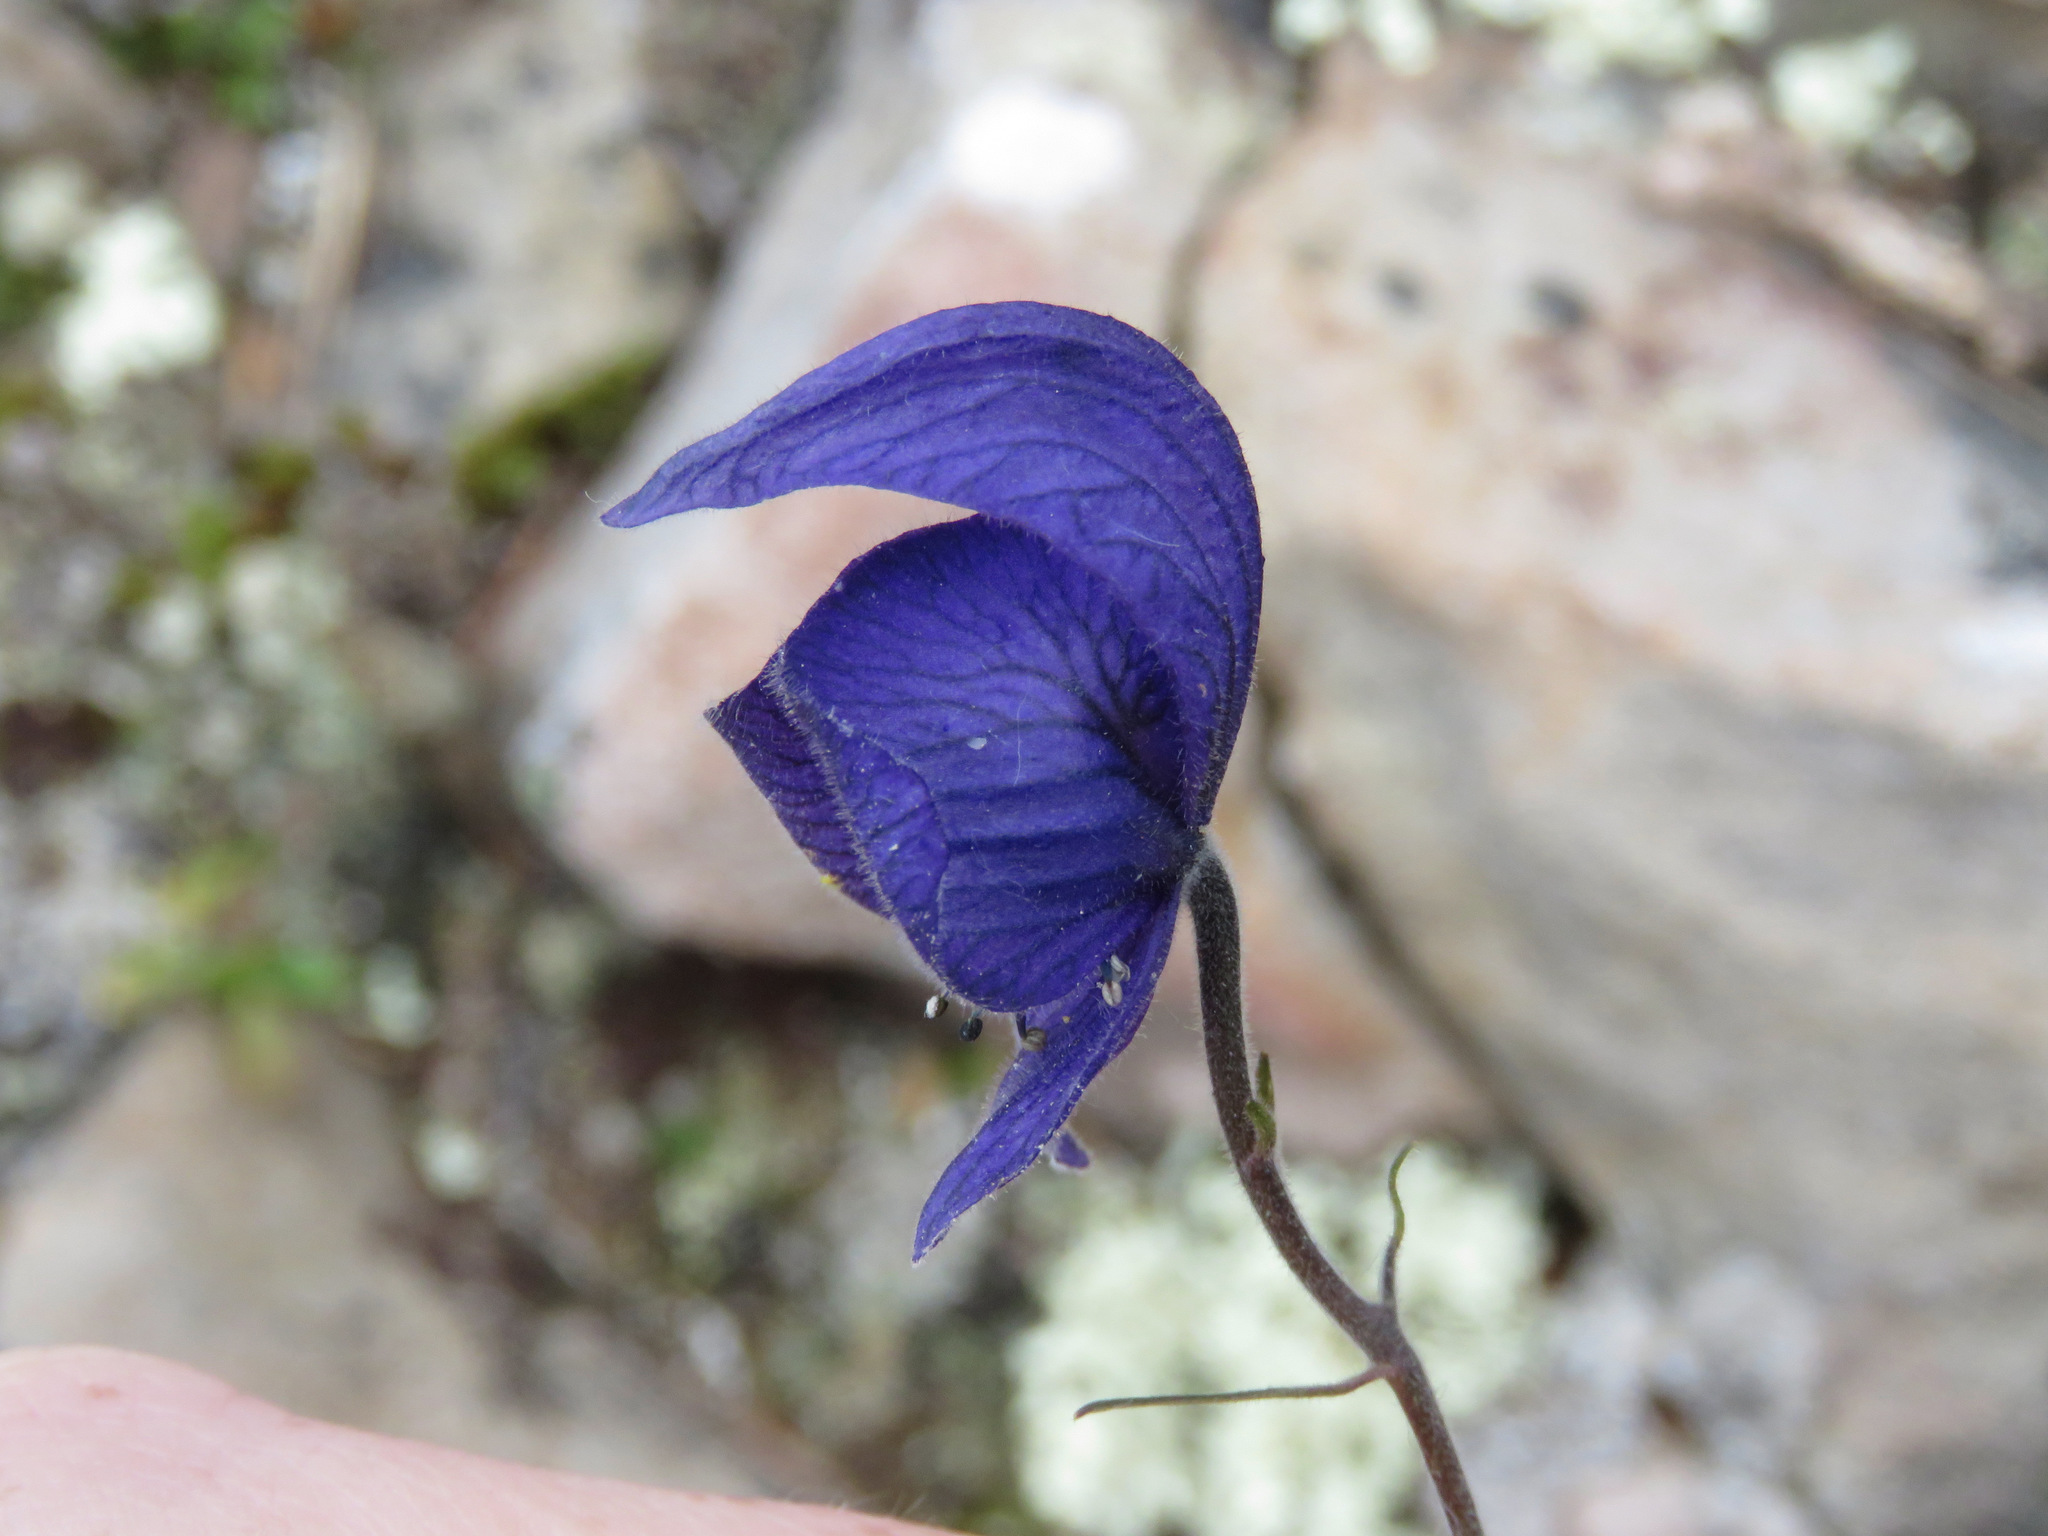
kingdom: Plantae
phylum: Tracheophyta
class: Magnoliopsida
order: Ranunculales
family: Ranunculaceae
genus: Aconitum
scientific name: Aconitum delphiniifolium
